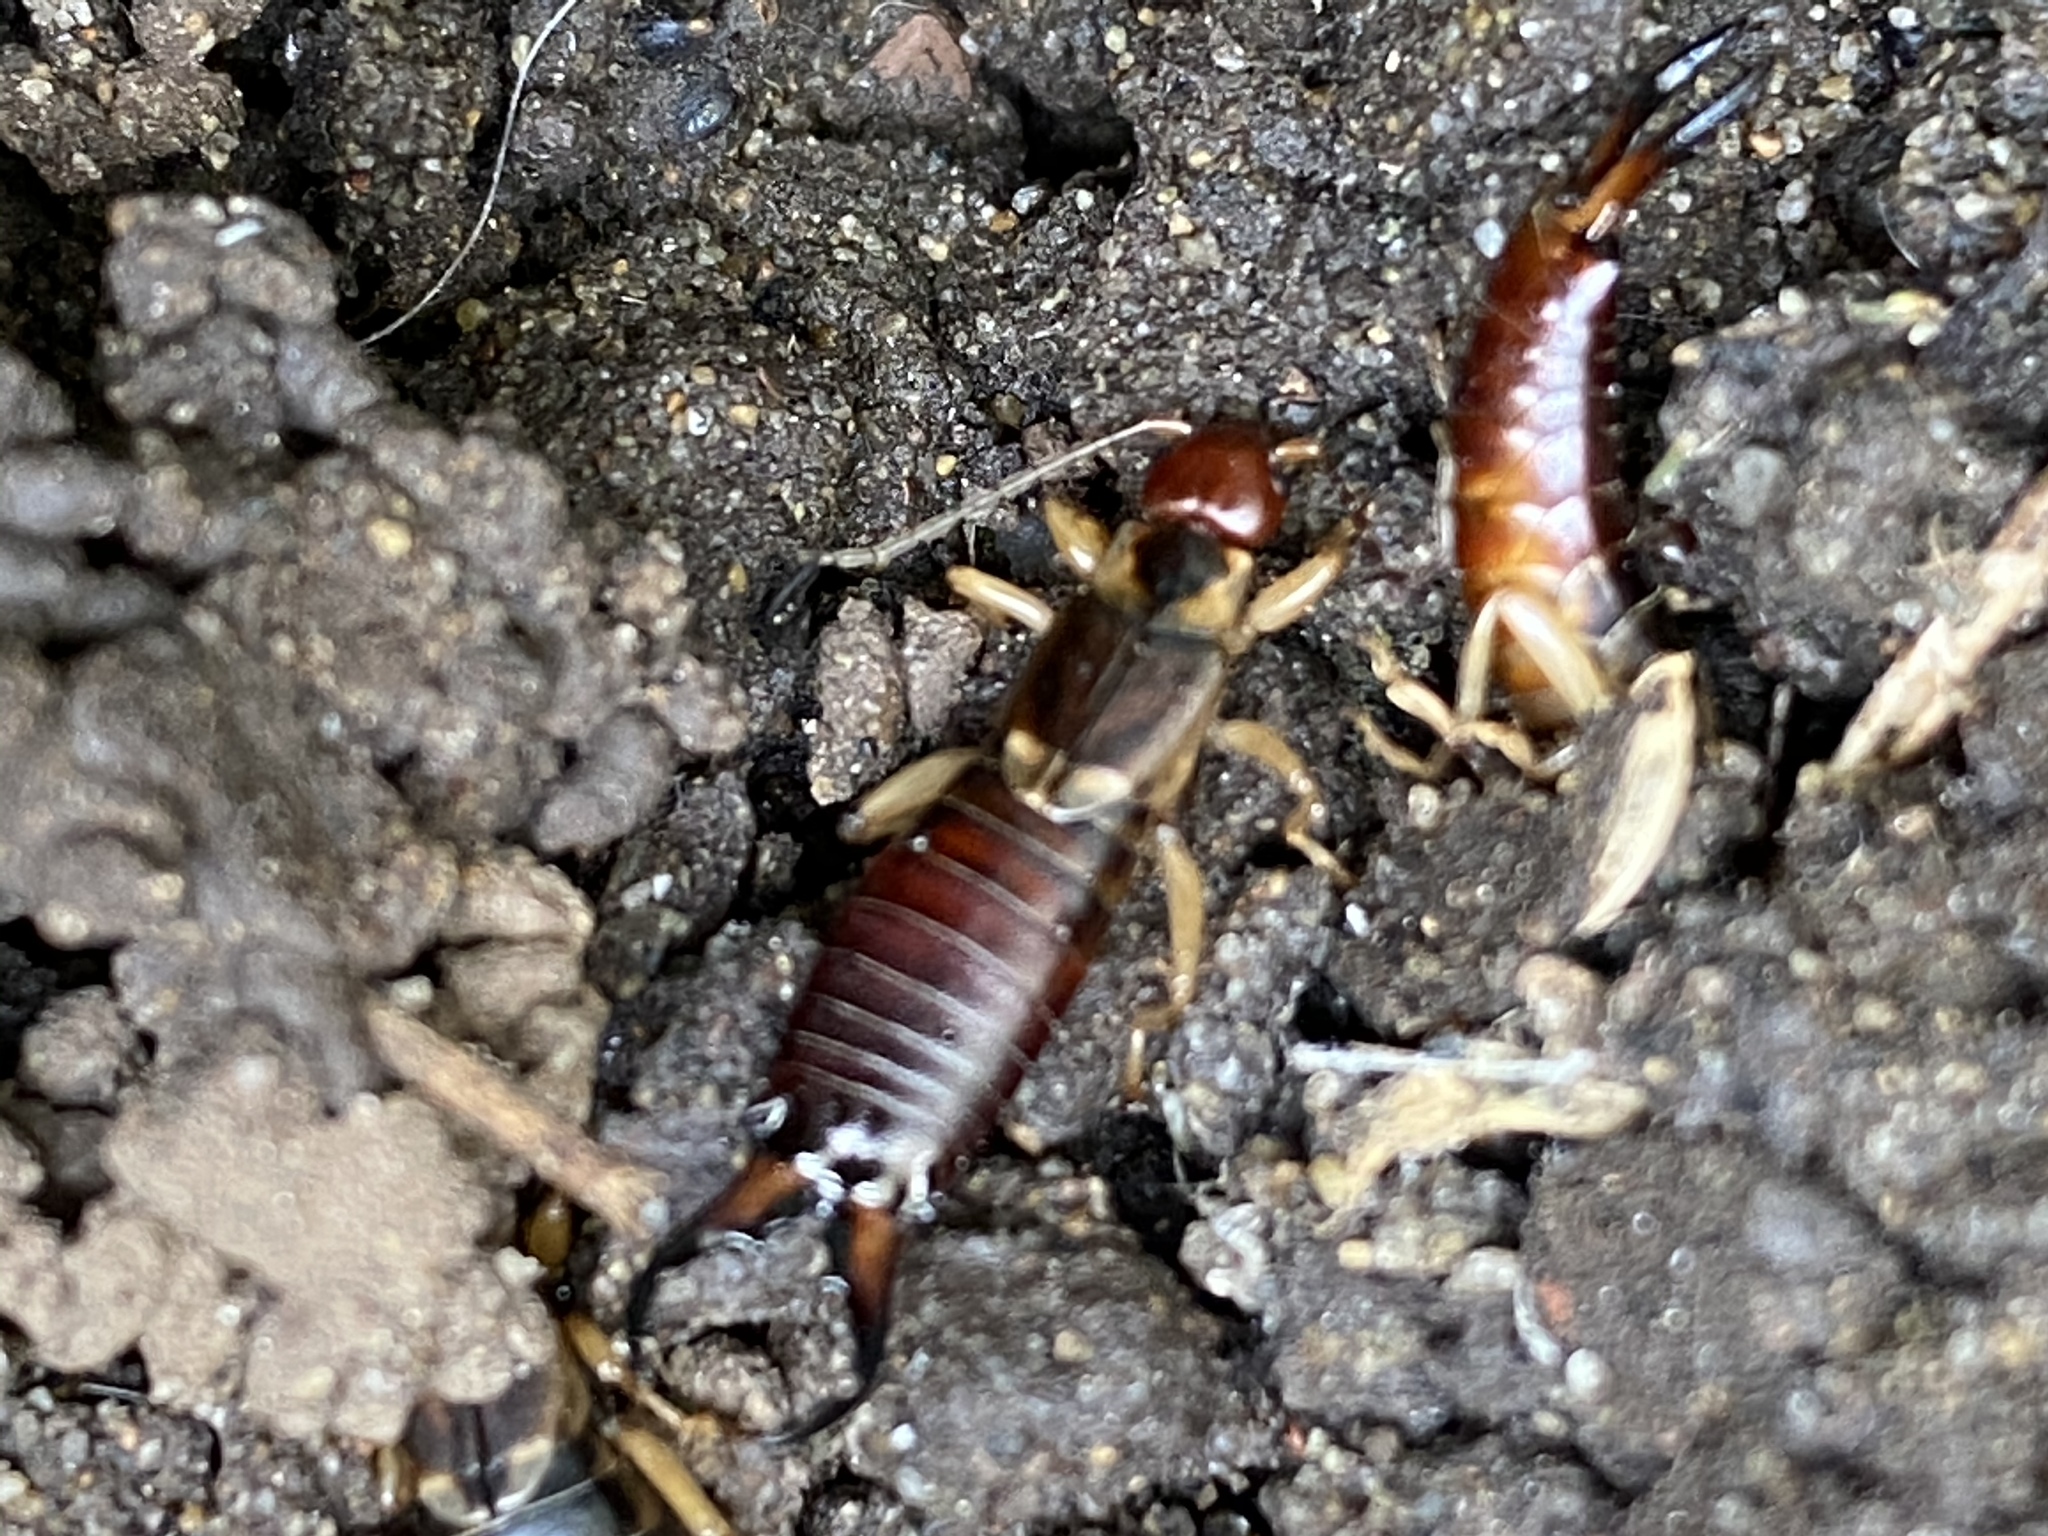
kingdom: Animalia
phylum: Arthropoda
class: Insecta
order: Dermaptera
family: Forficulidae
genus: Forficula
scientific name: Forficula
